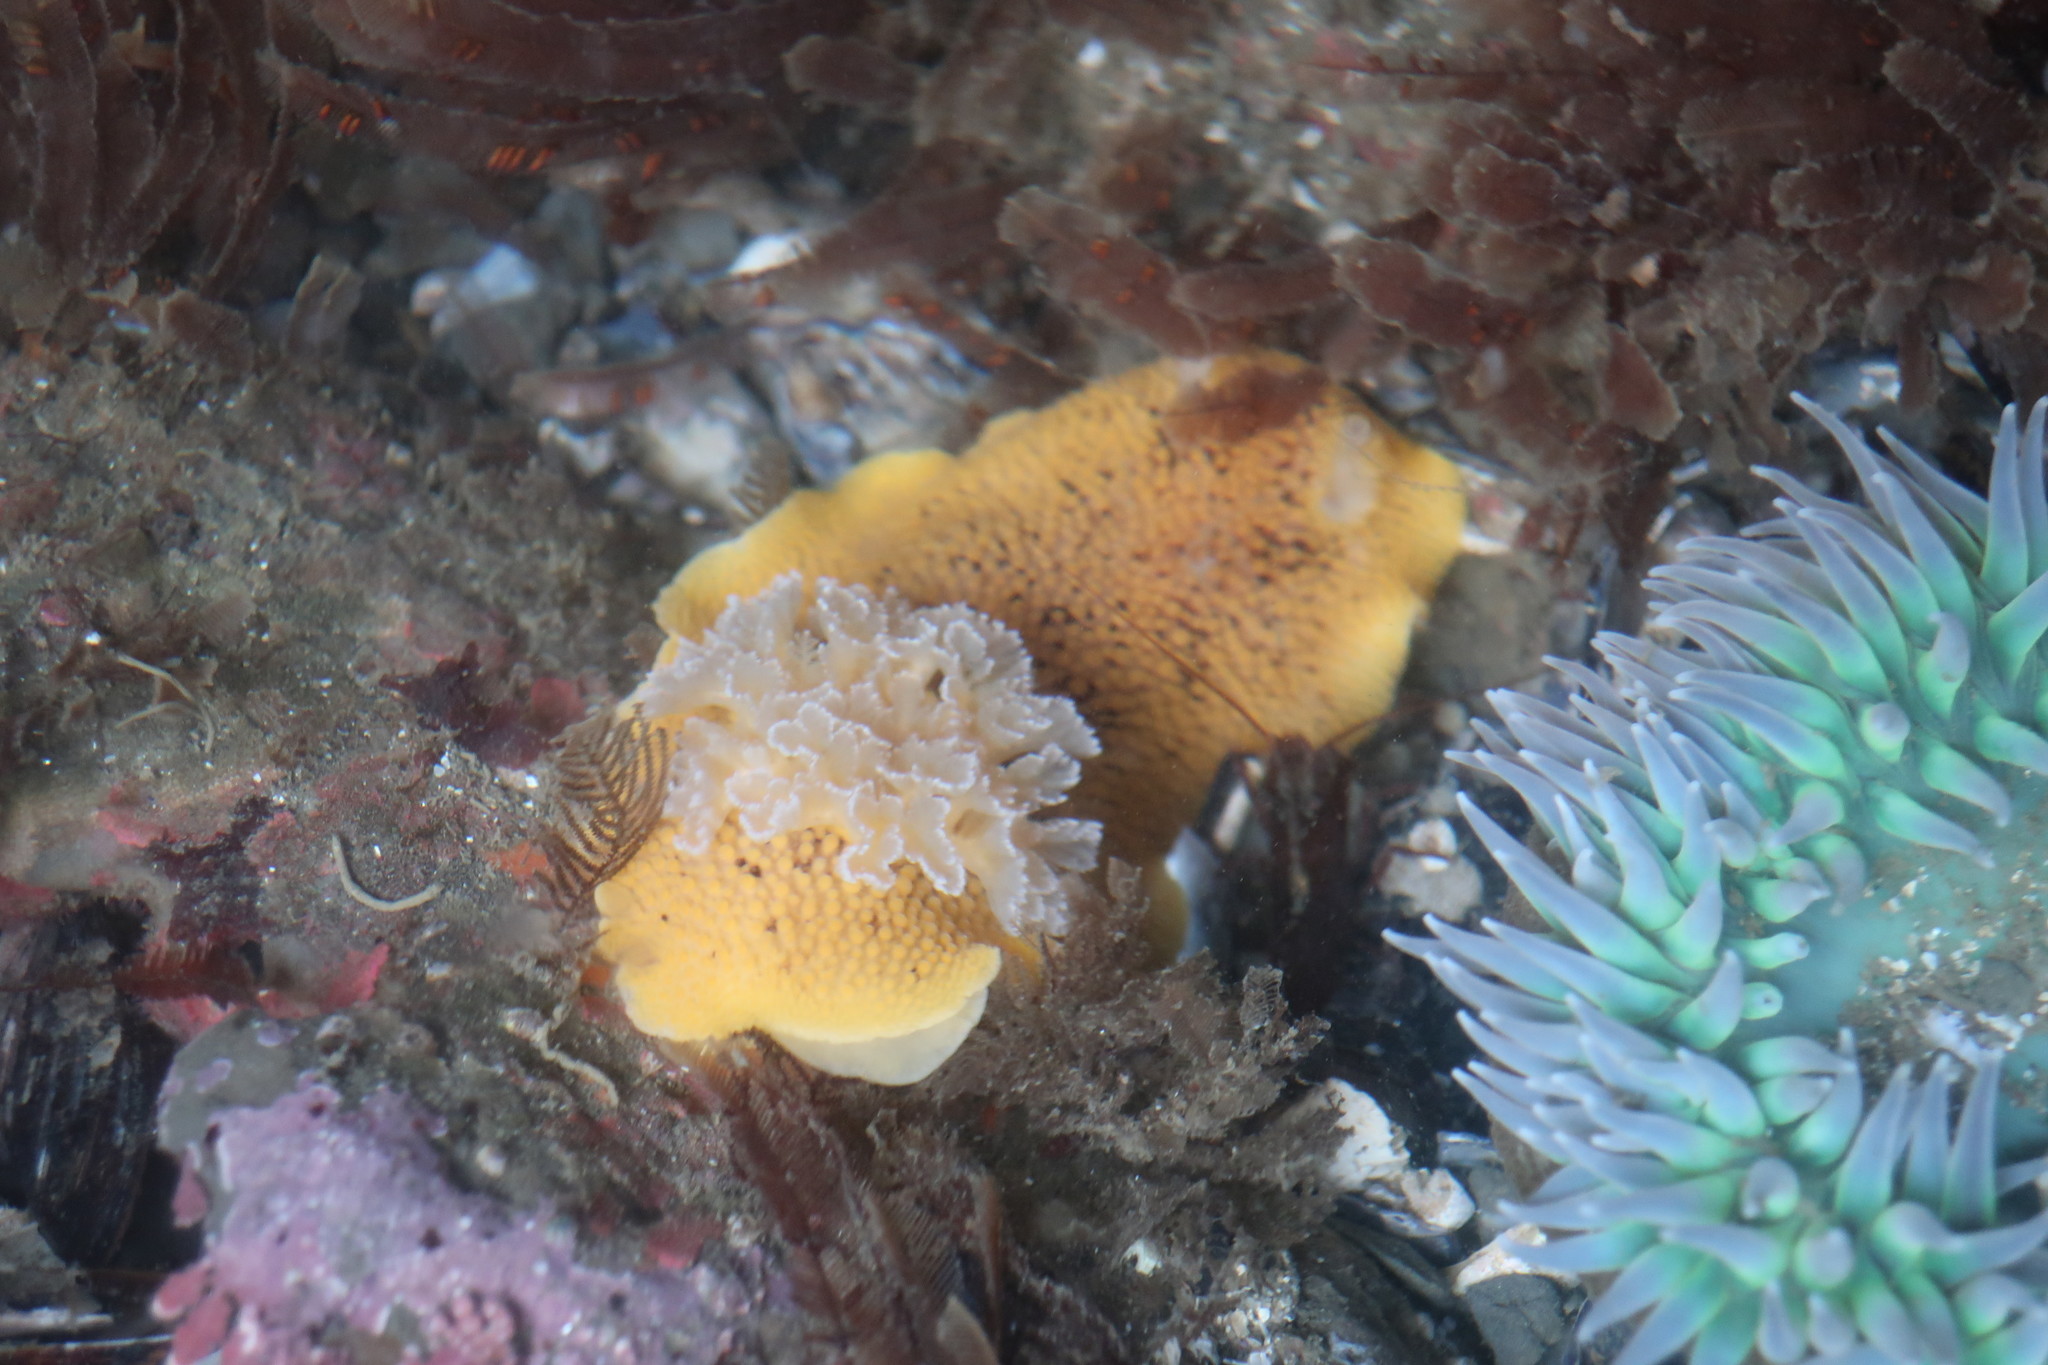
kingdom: Animalia
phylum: Mollusca
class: Gastropoda
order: Nudibranchia
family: Discodorididae
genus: Peltodoris
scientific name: Peltodoris nobilis
